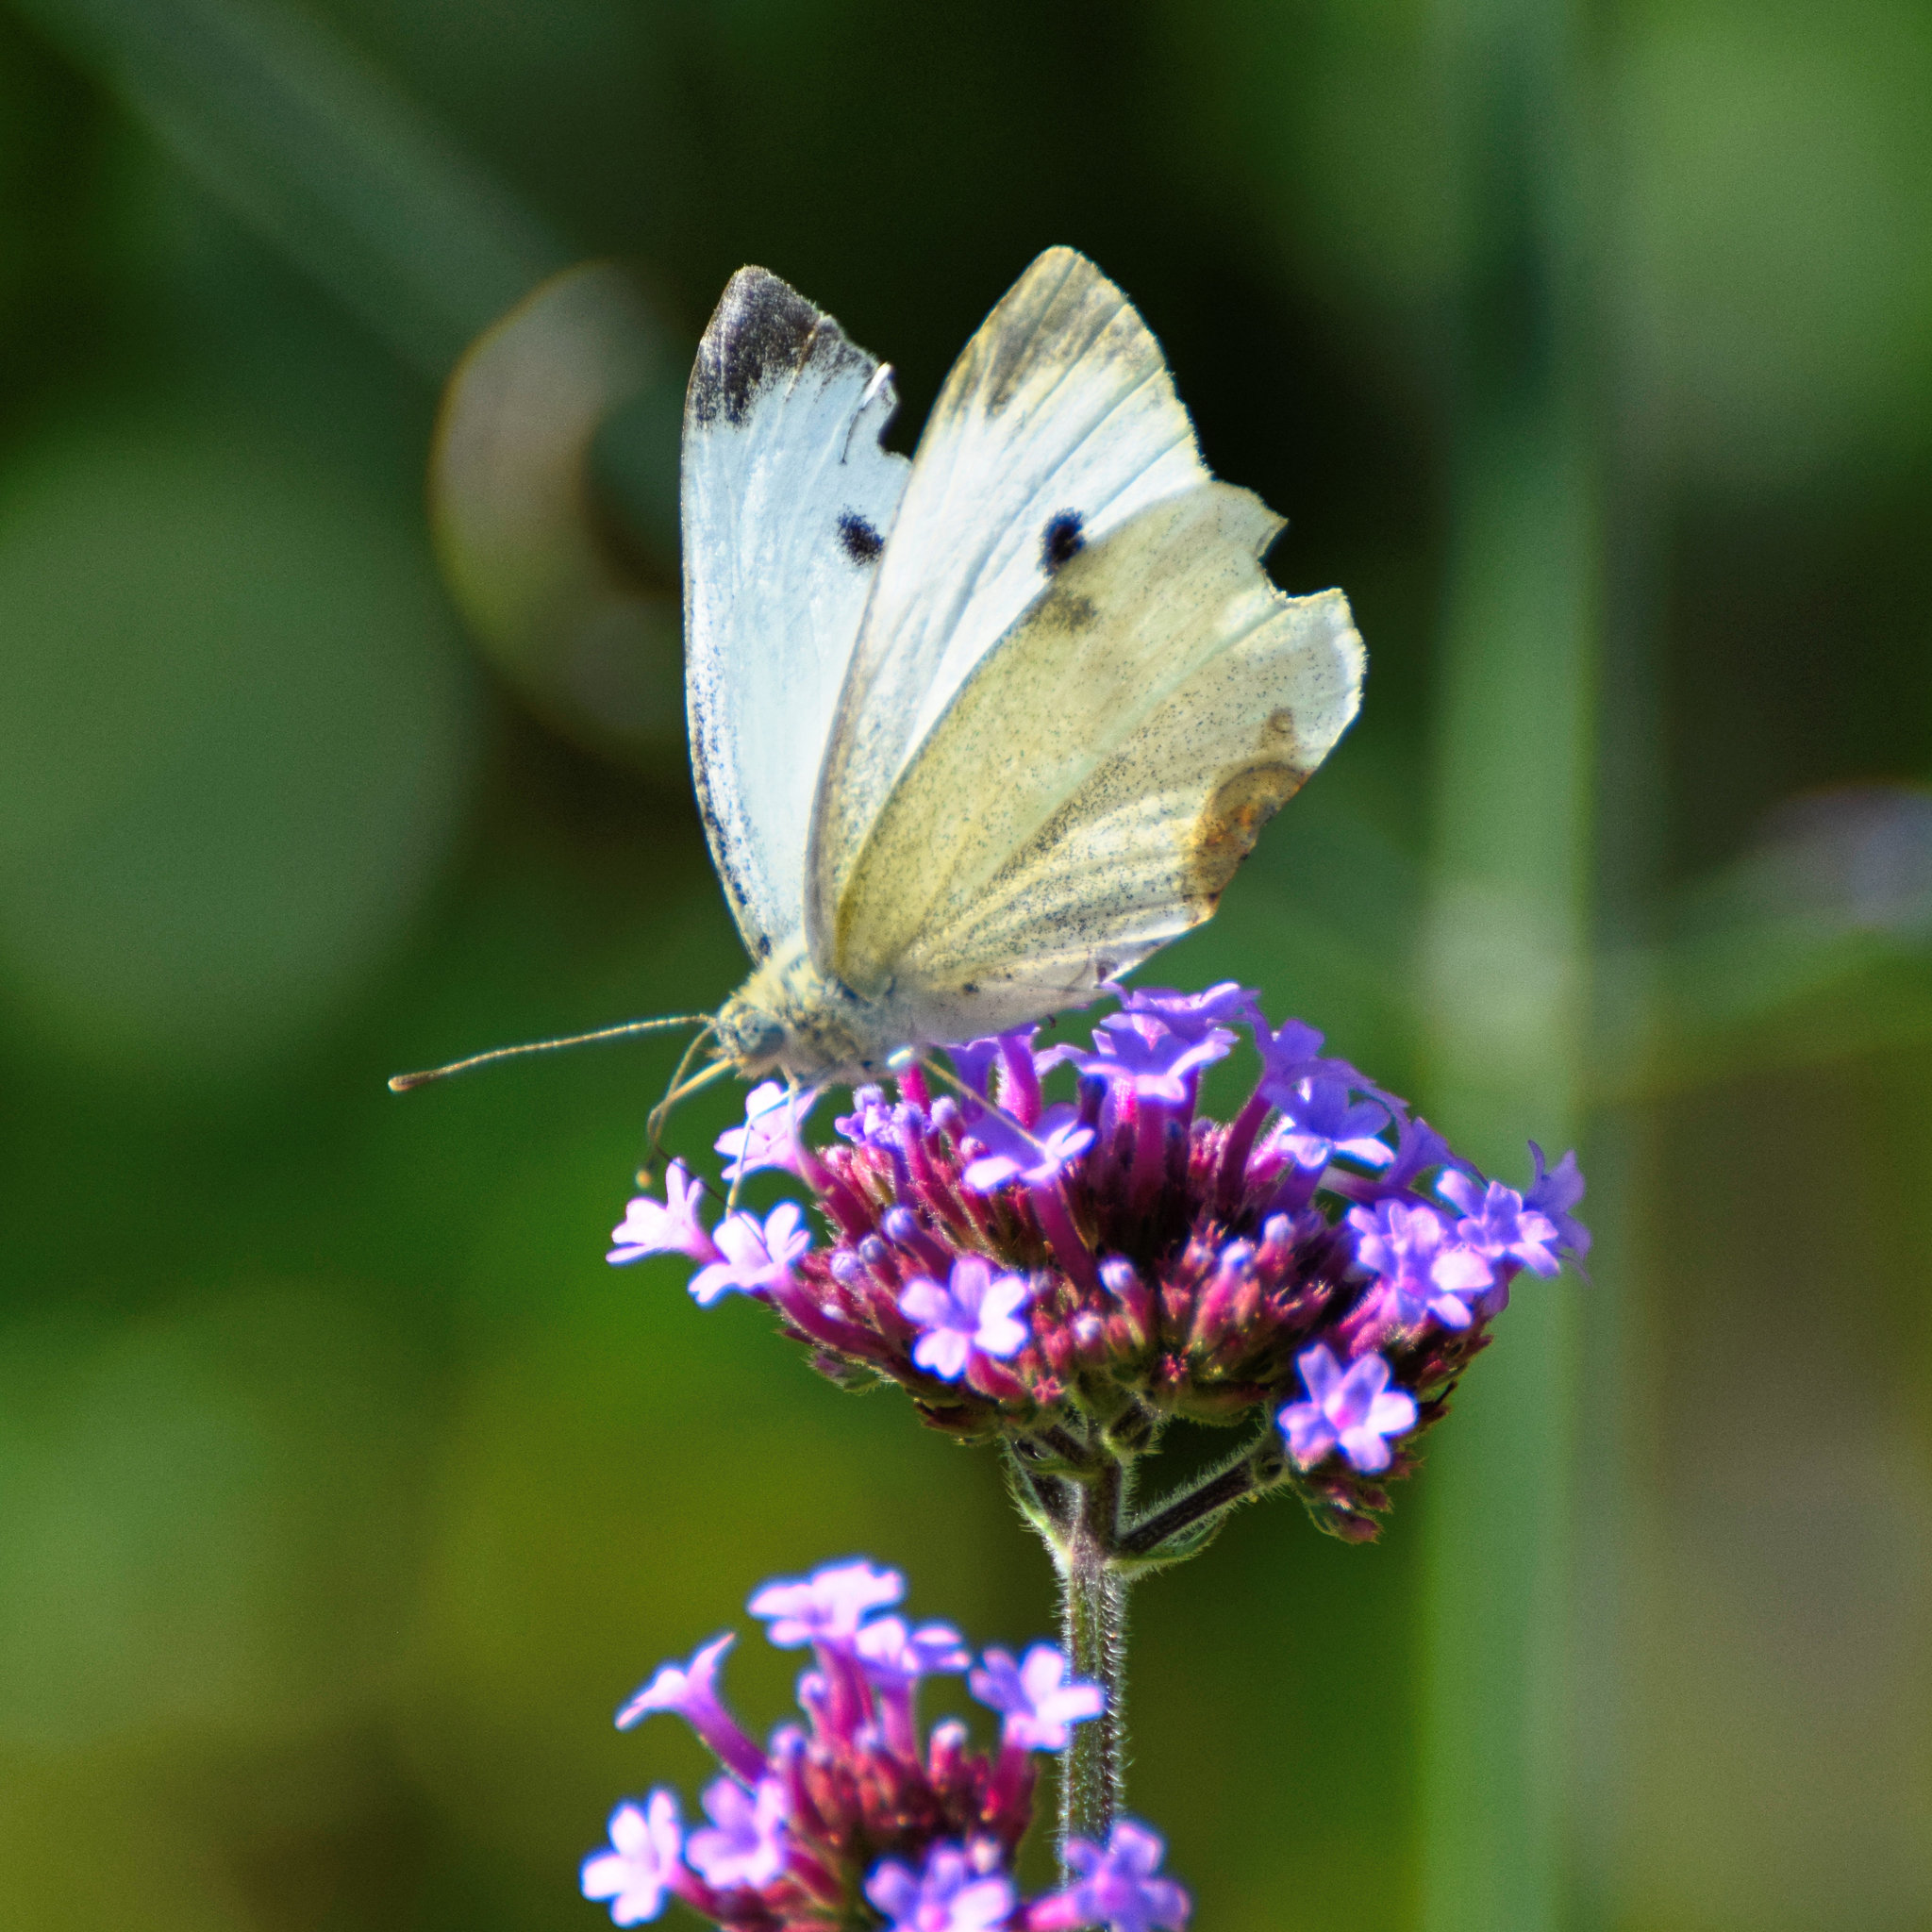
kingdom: Animalia
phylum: Arthropoda
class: Insecta
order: Lepidoptera
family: Pieridae
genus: Pieris
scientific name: Pieris rapae
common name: Small white
